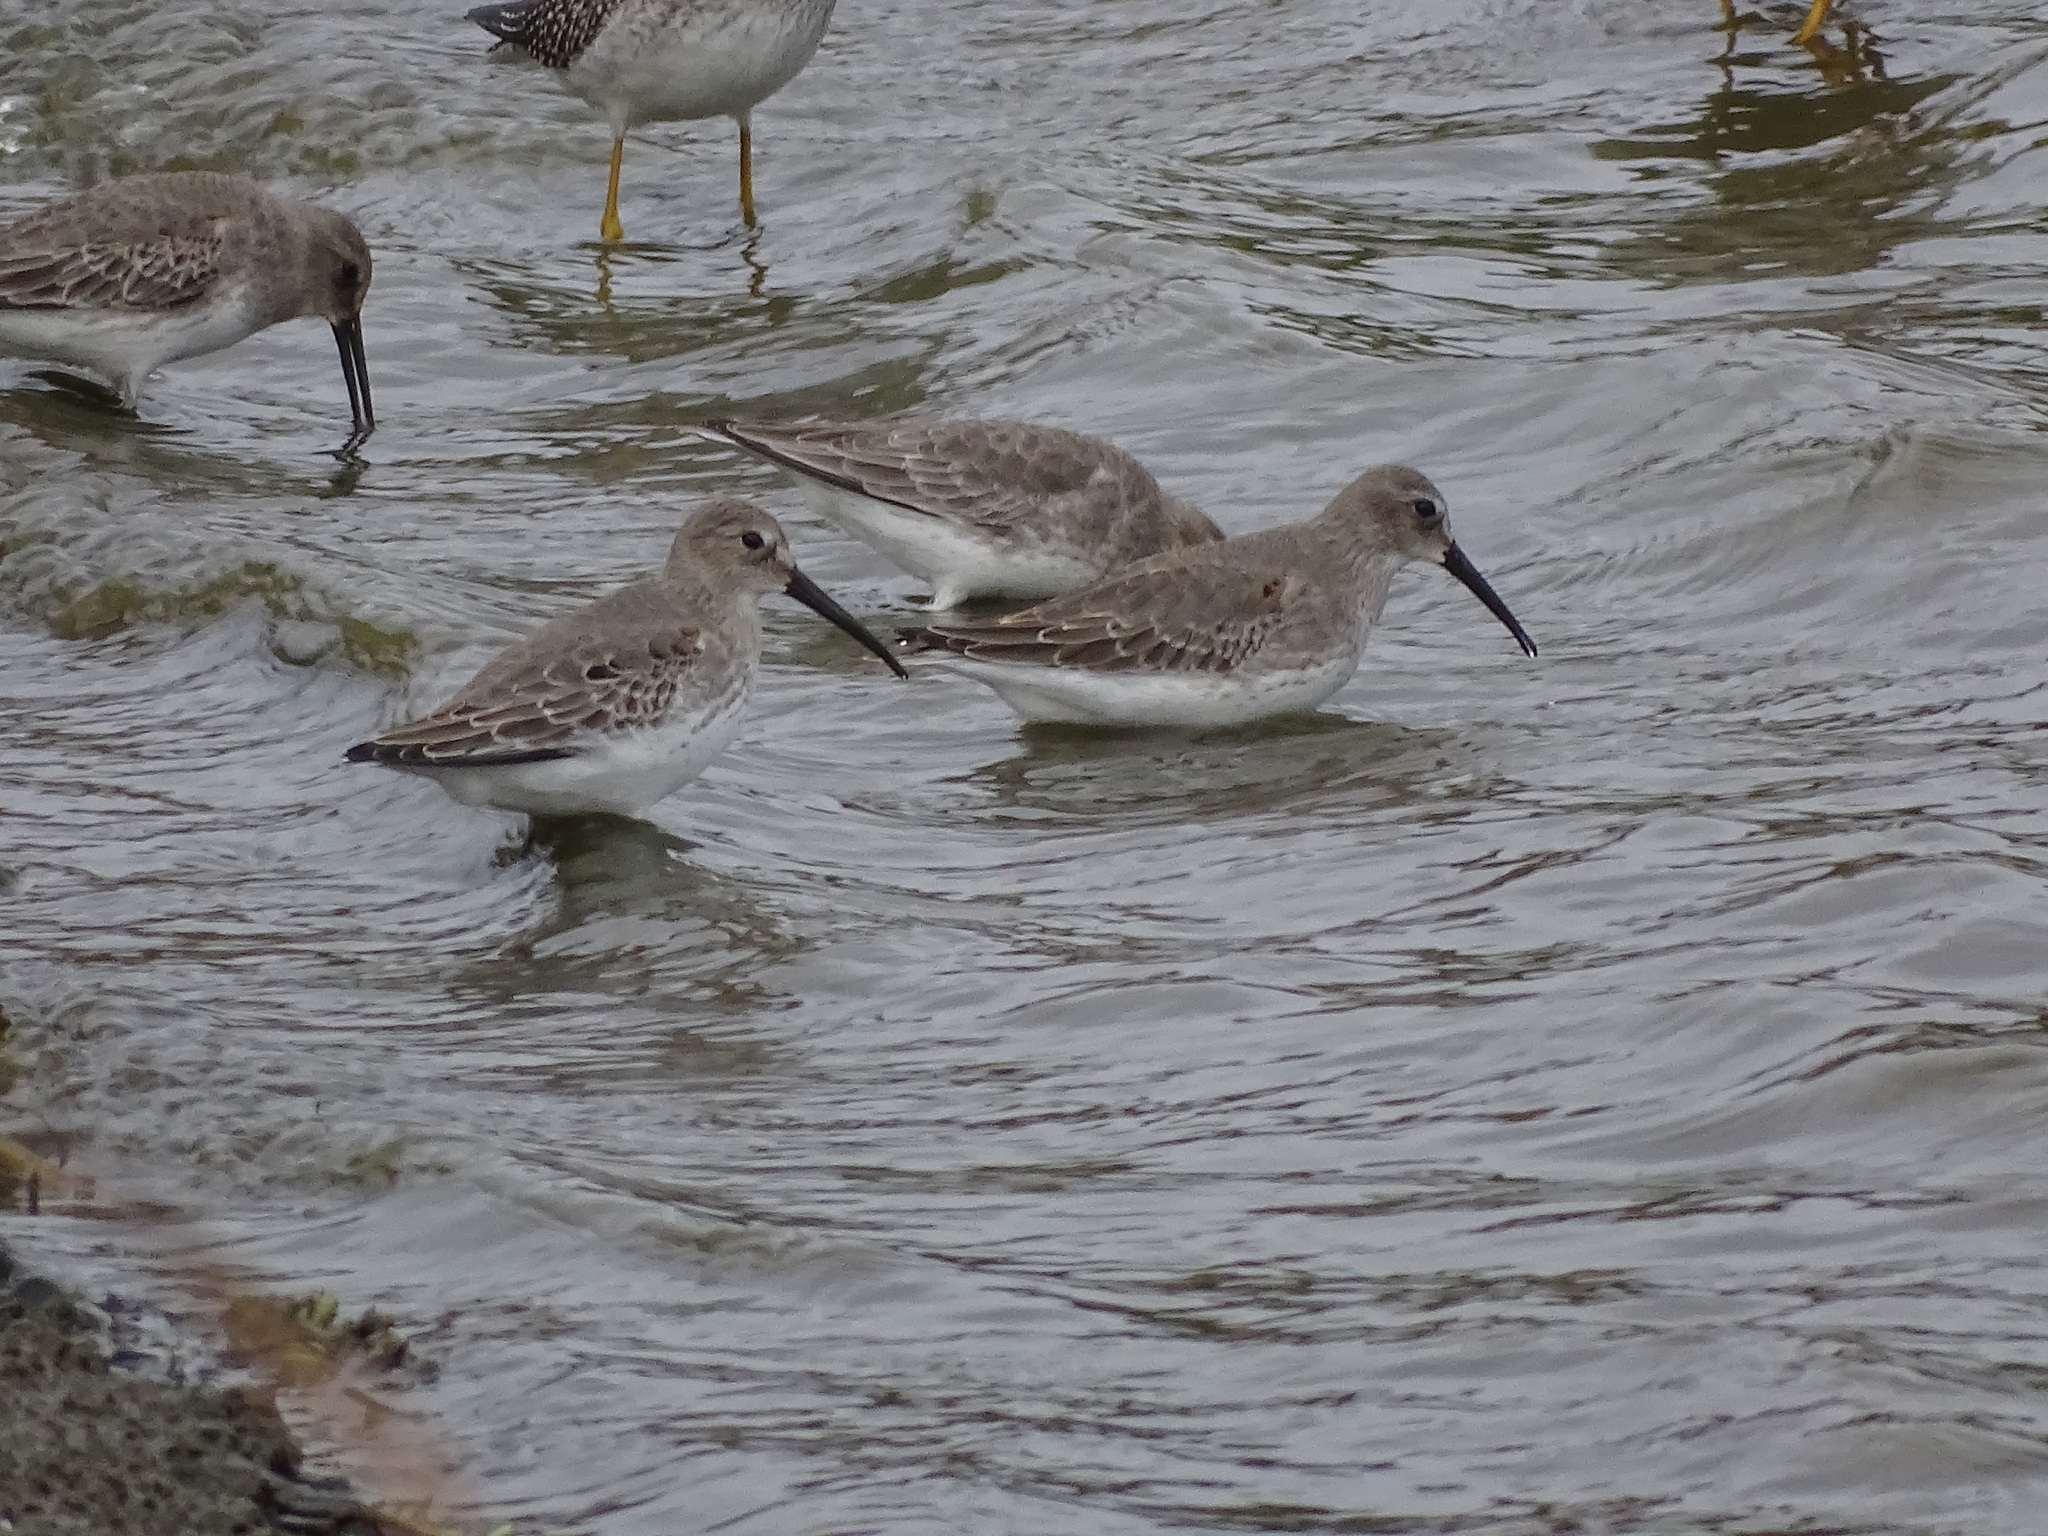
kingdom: Animalia
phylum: Chordata
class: Aves
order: Charadriiformes
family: Scolopacidae
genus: Calidris
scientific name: Calidris alpina
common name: Dunlin
